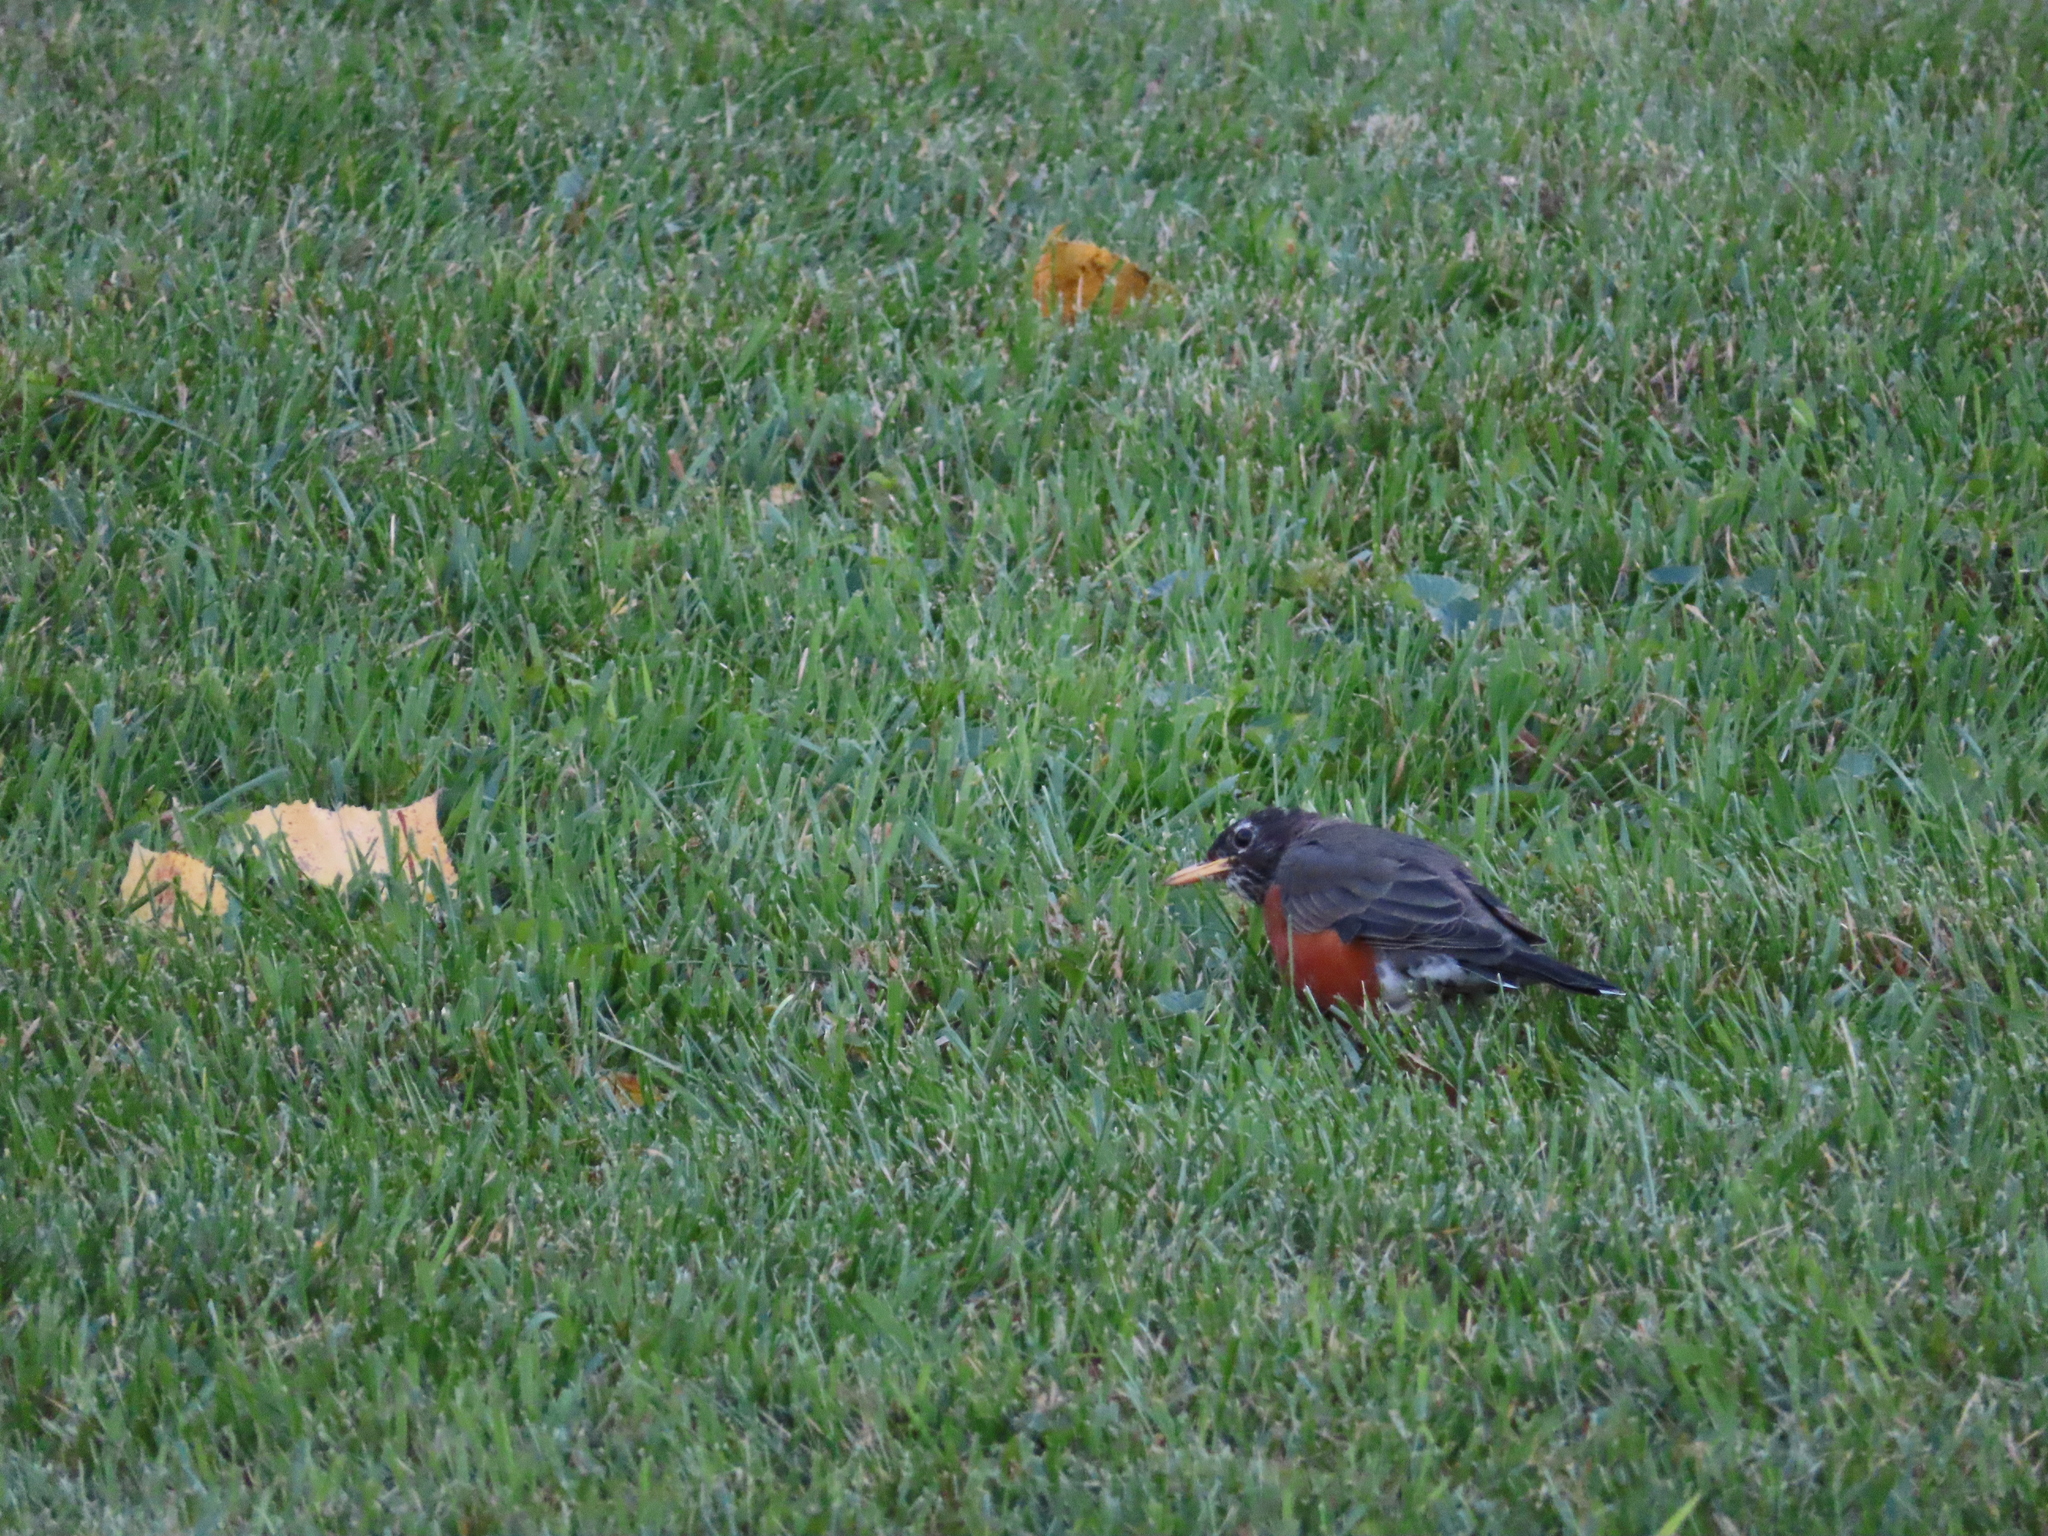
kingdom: Animalia
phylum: Chordata
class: Aves
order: Passeriformes
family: Turdidae
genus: Turdus
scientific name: Turdus migratorius
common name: American robin
